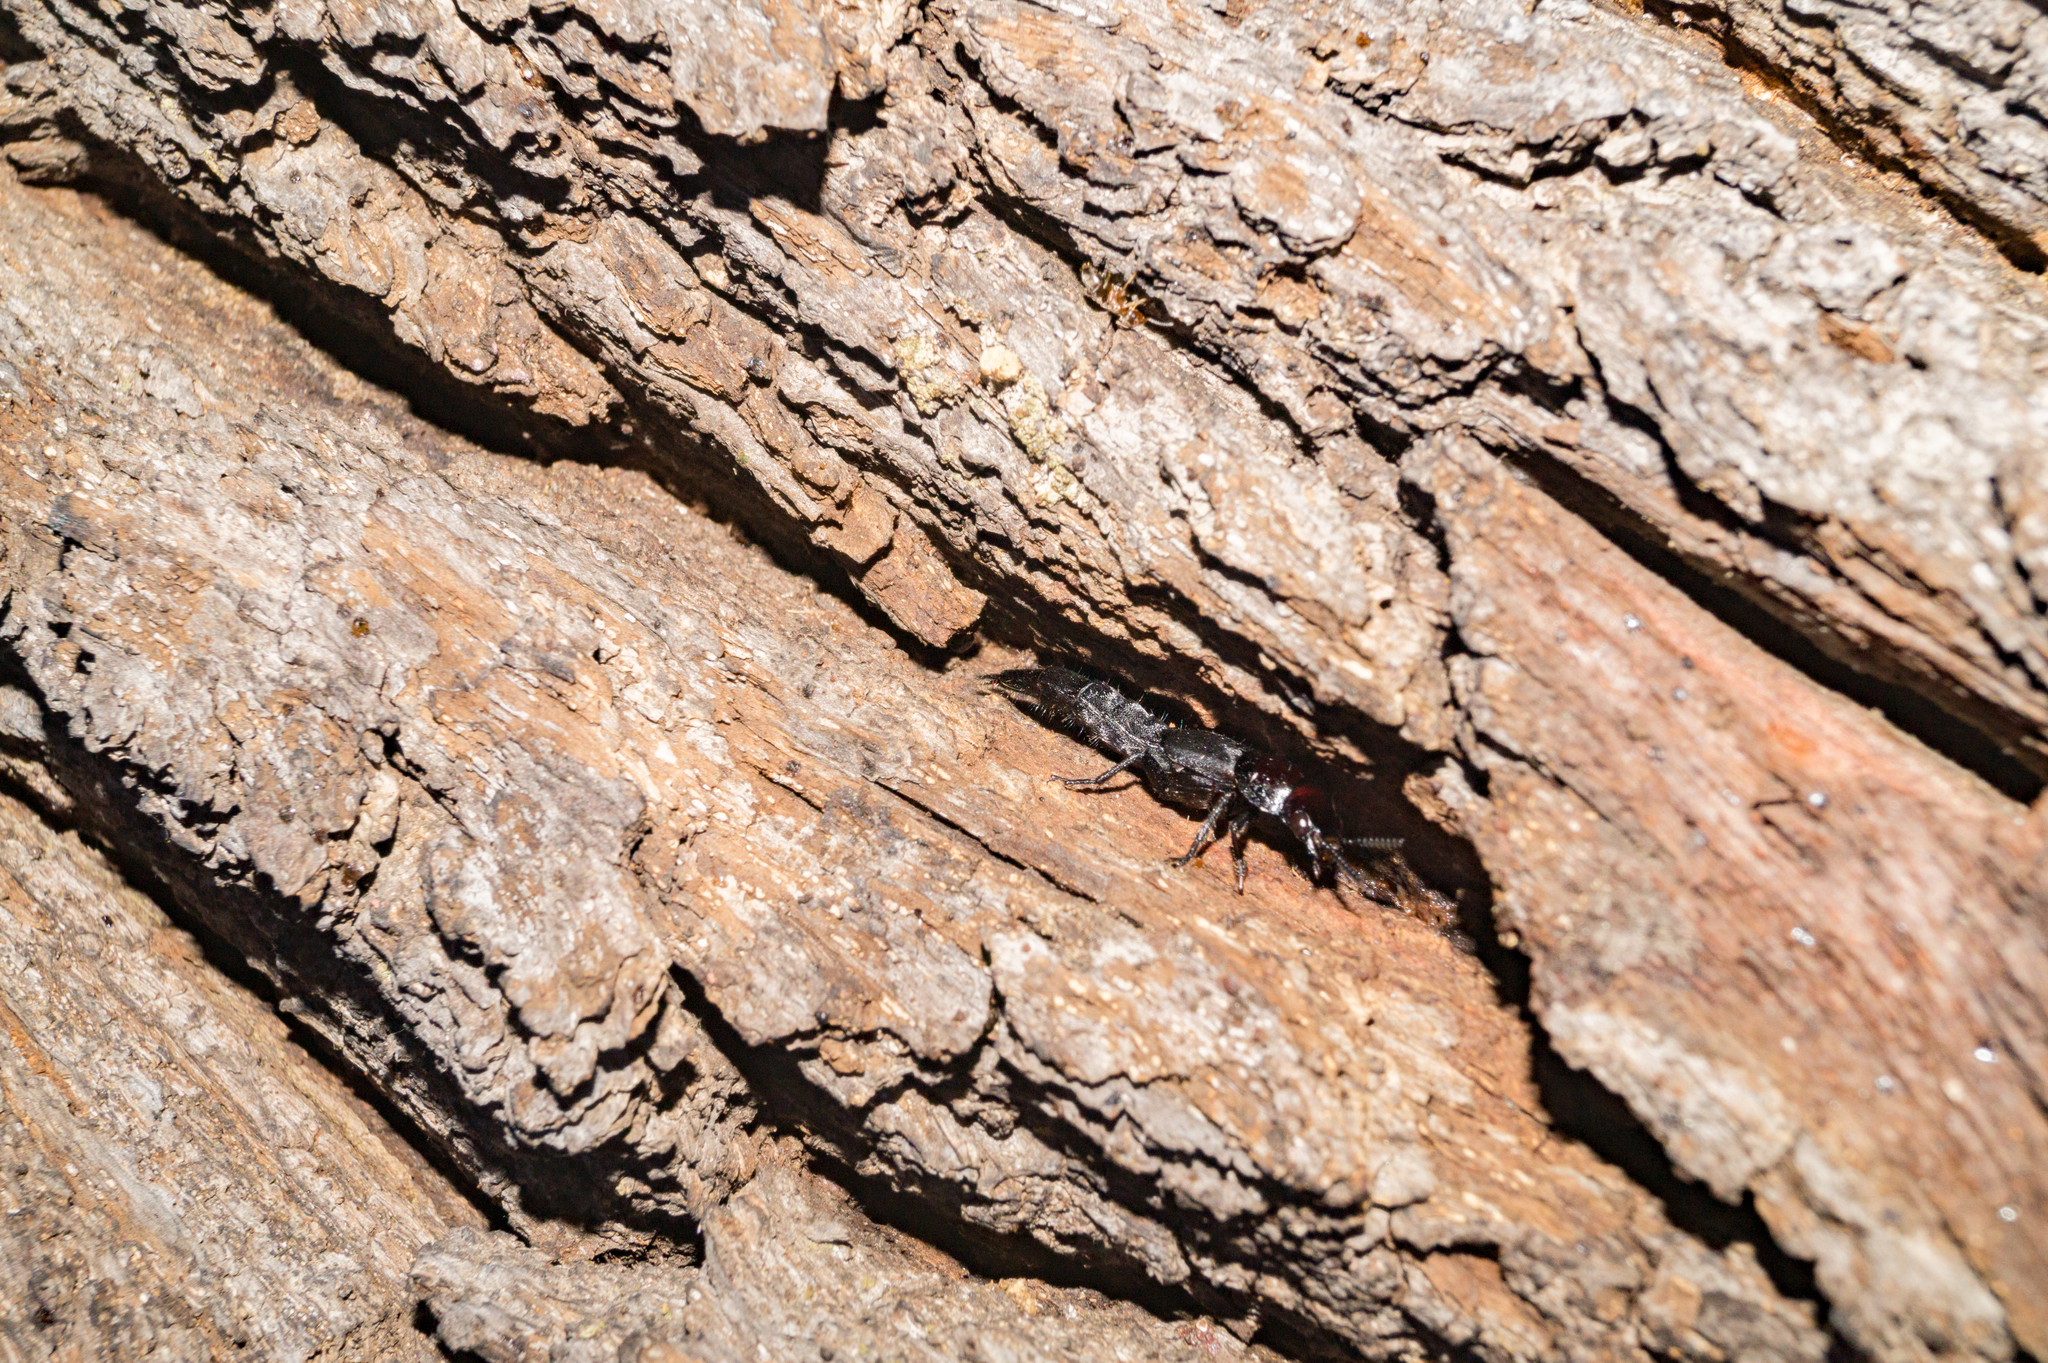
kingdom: Animalia
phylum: Arthropoda
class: Insecta
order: Coleoptera
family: Staphylinidae
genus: Quedius
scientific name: Quedius dilatatus
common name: Hornet rove-beetle
